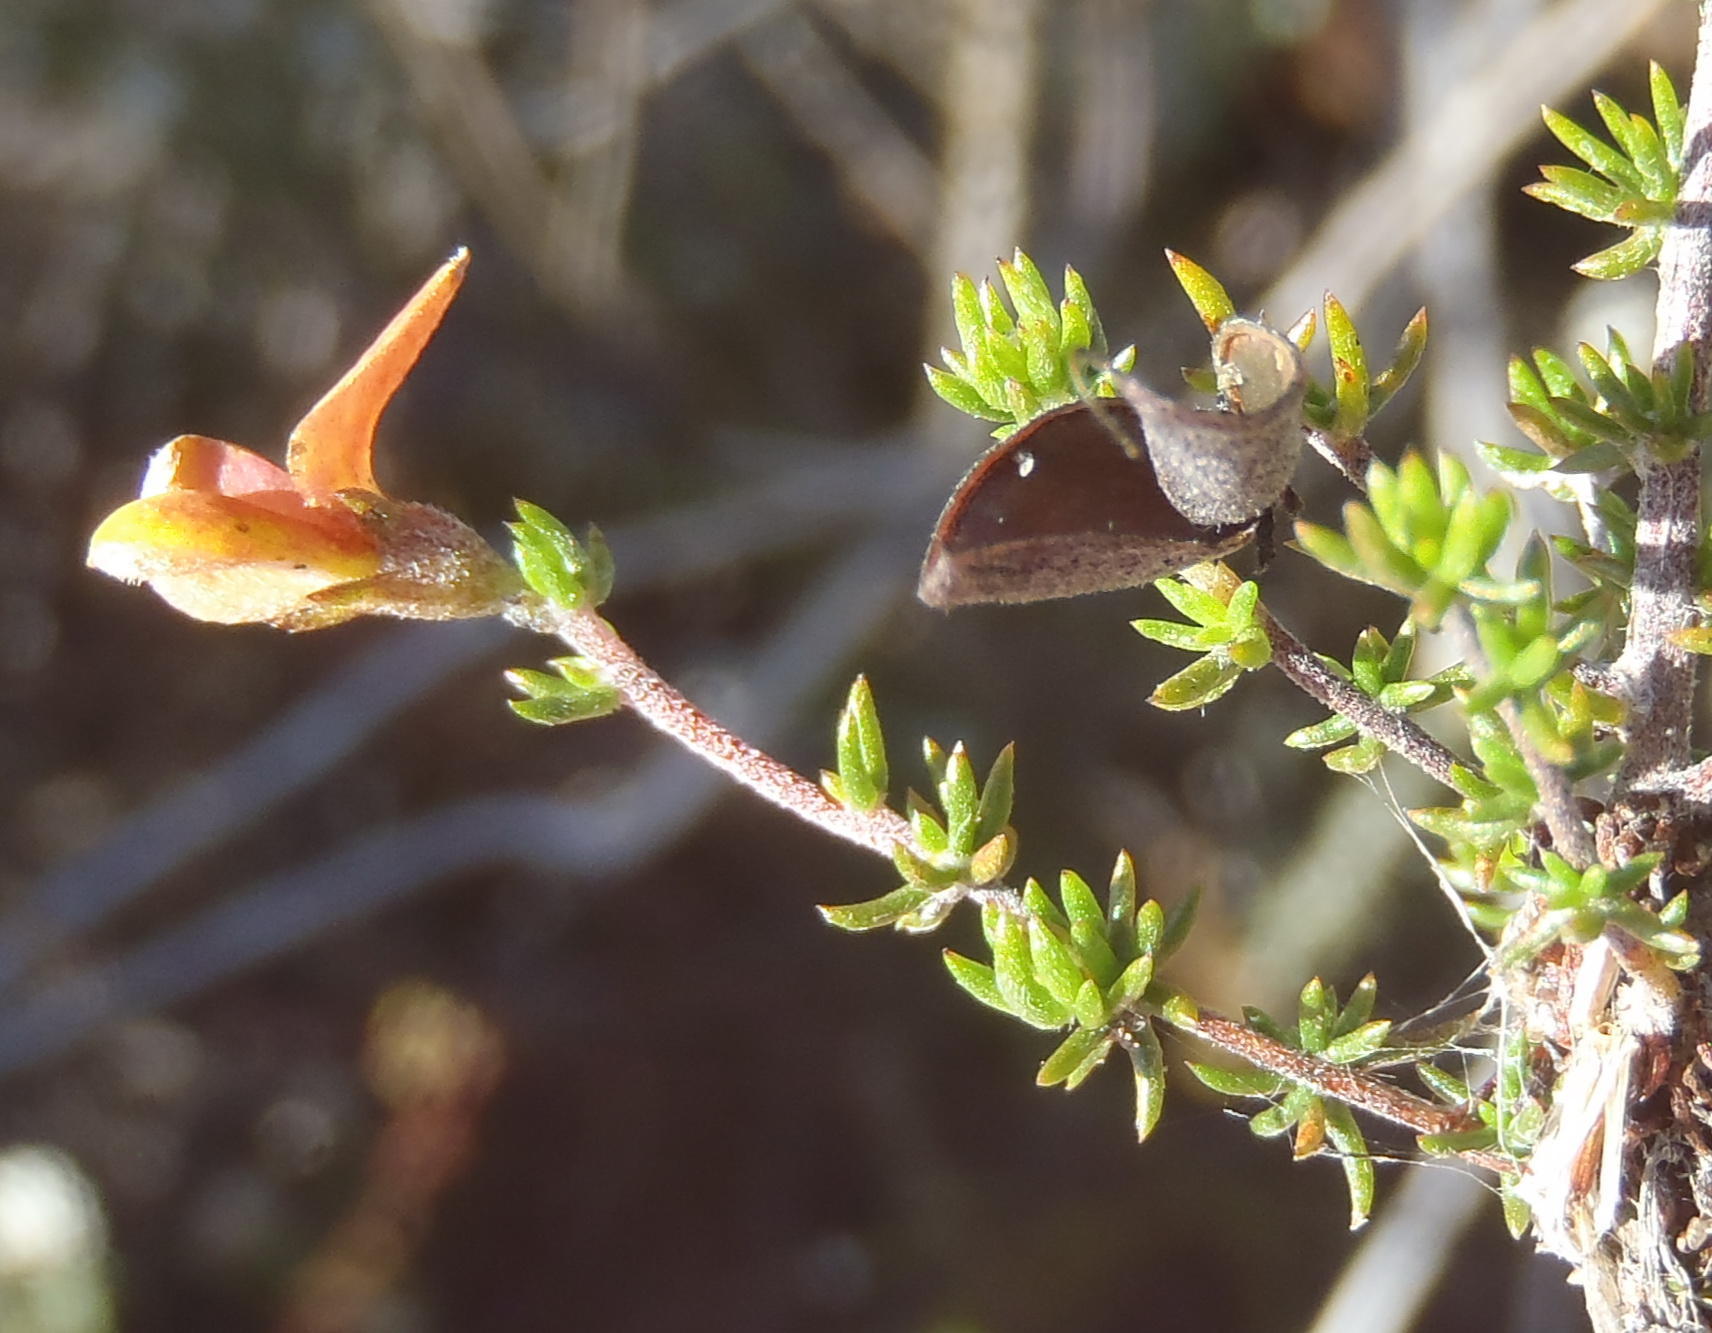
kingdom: Plantae
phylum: Tracheophyta
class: Magnoliopsida
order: Fabales
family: Fabaceae
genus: Aspalathus
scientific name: Aspalathus rubens
